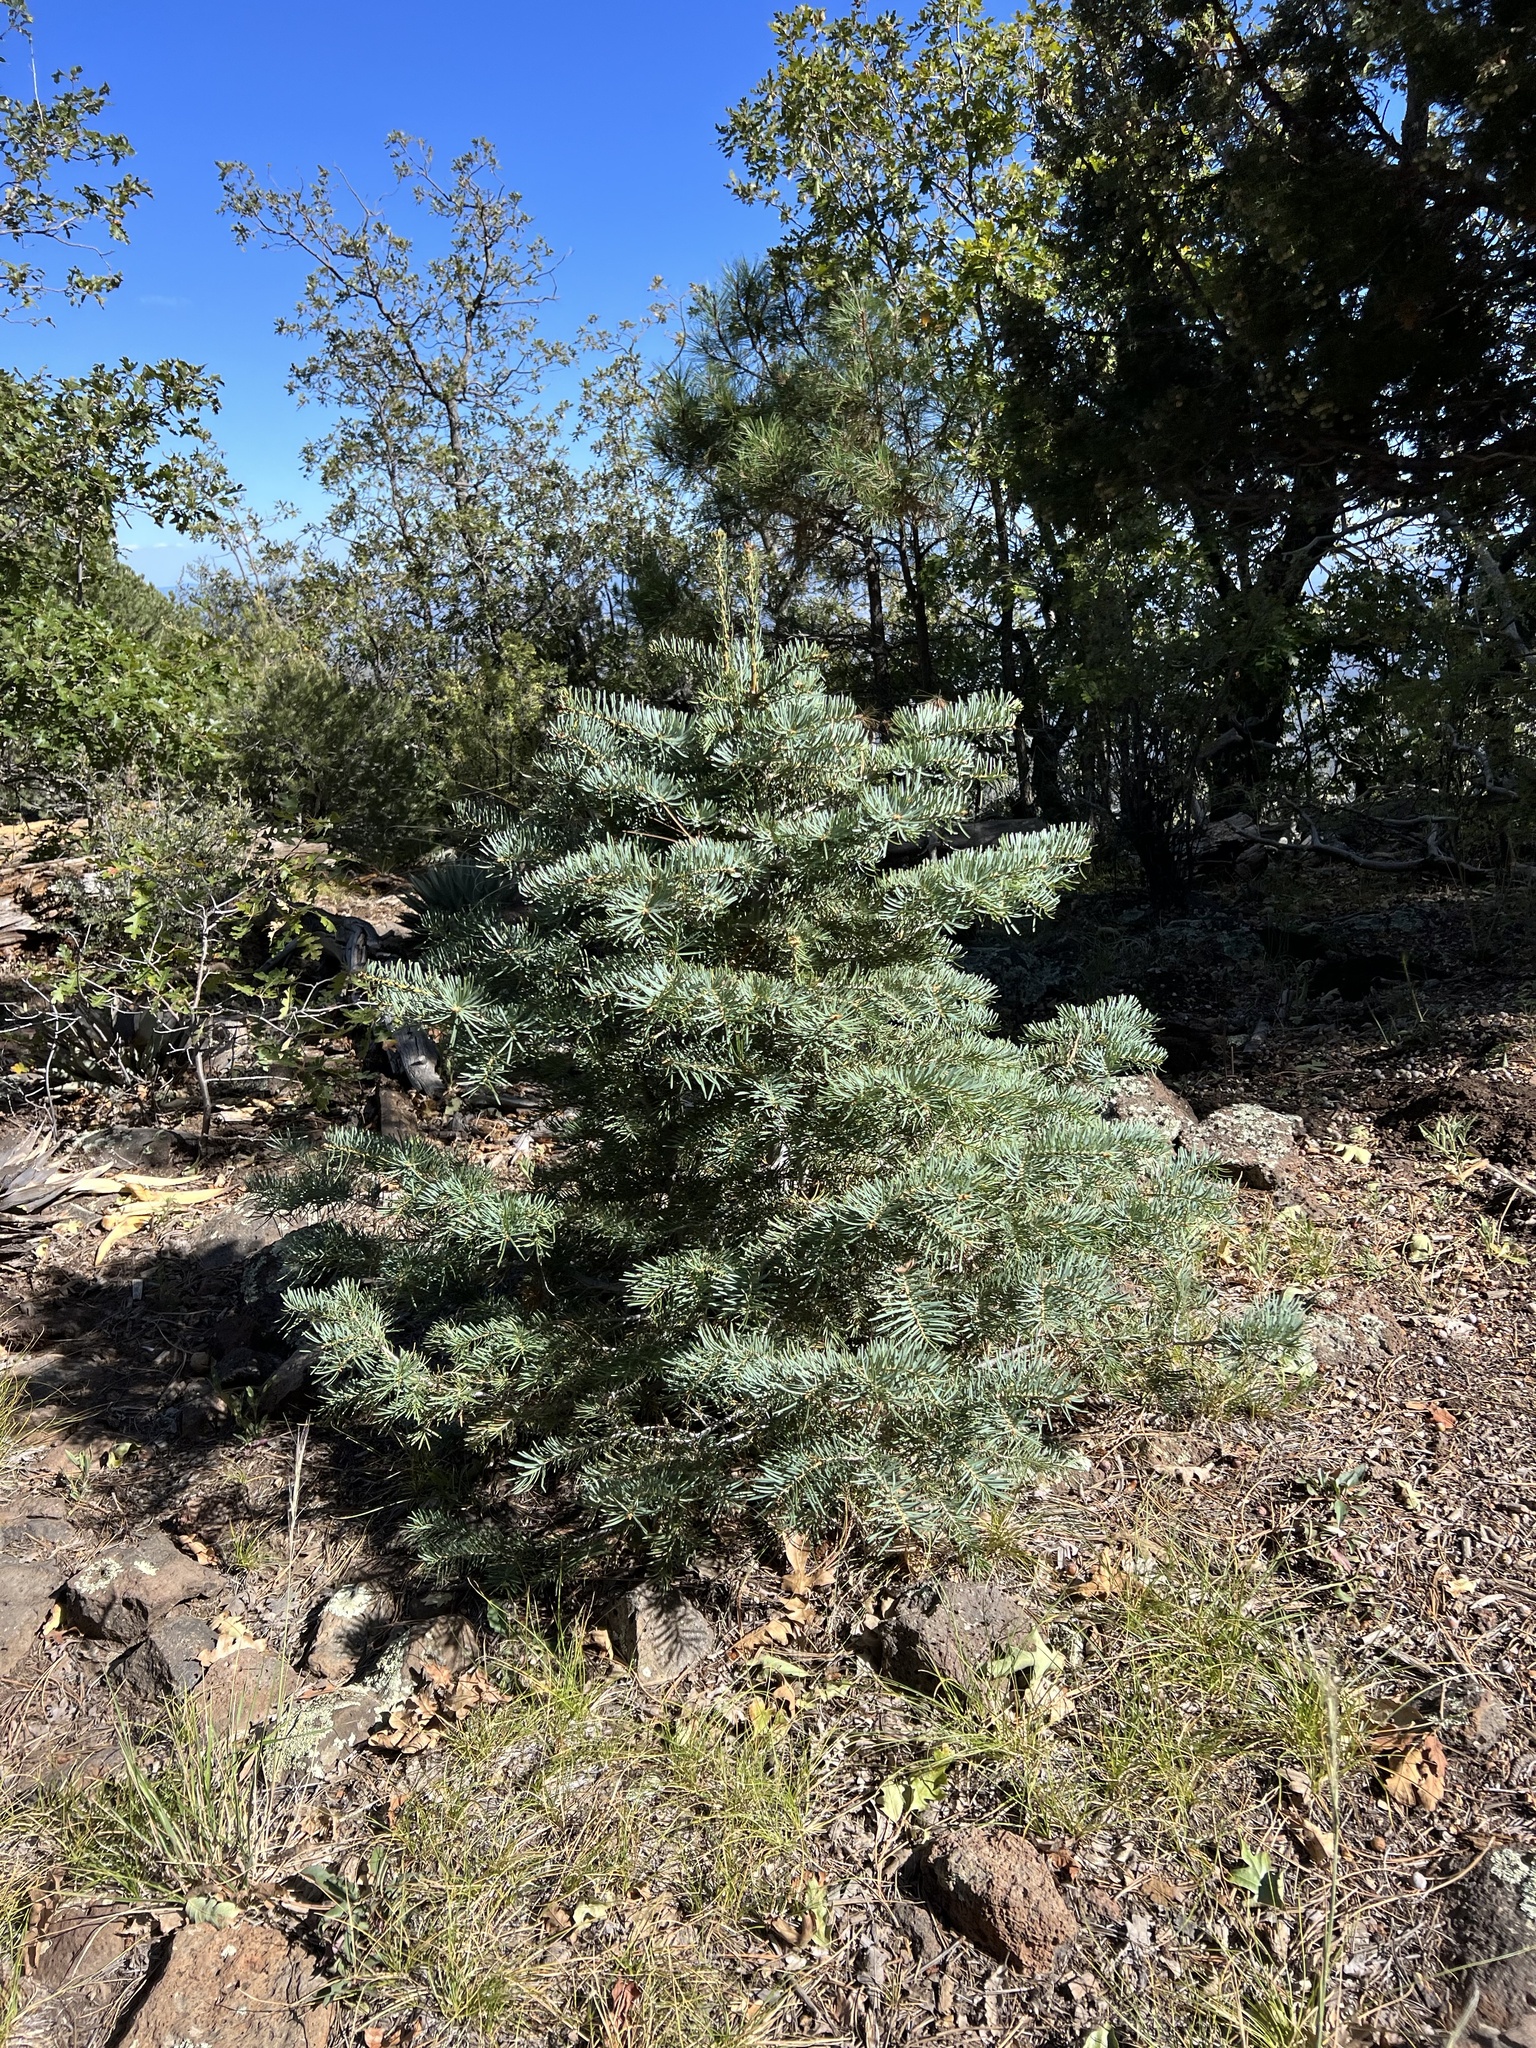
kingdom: Plantae
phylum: Tracheophyta
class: Pinopsida
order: Pinales
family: Pinaceae
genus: Abies
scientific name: Abies concolor
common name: Colorado fir
